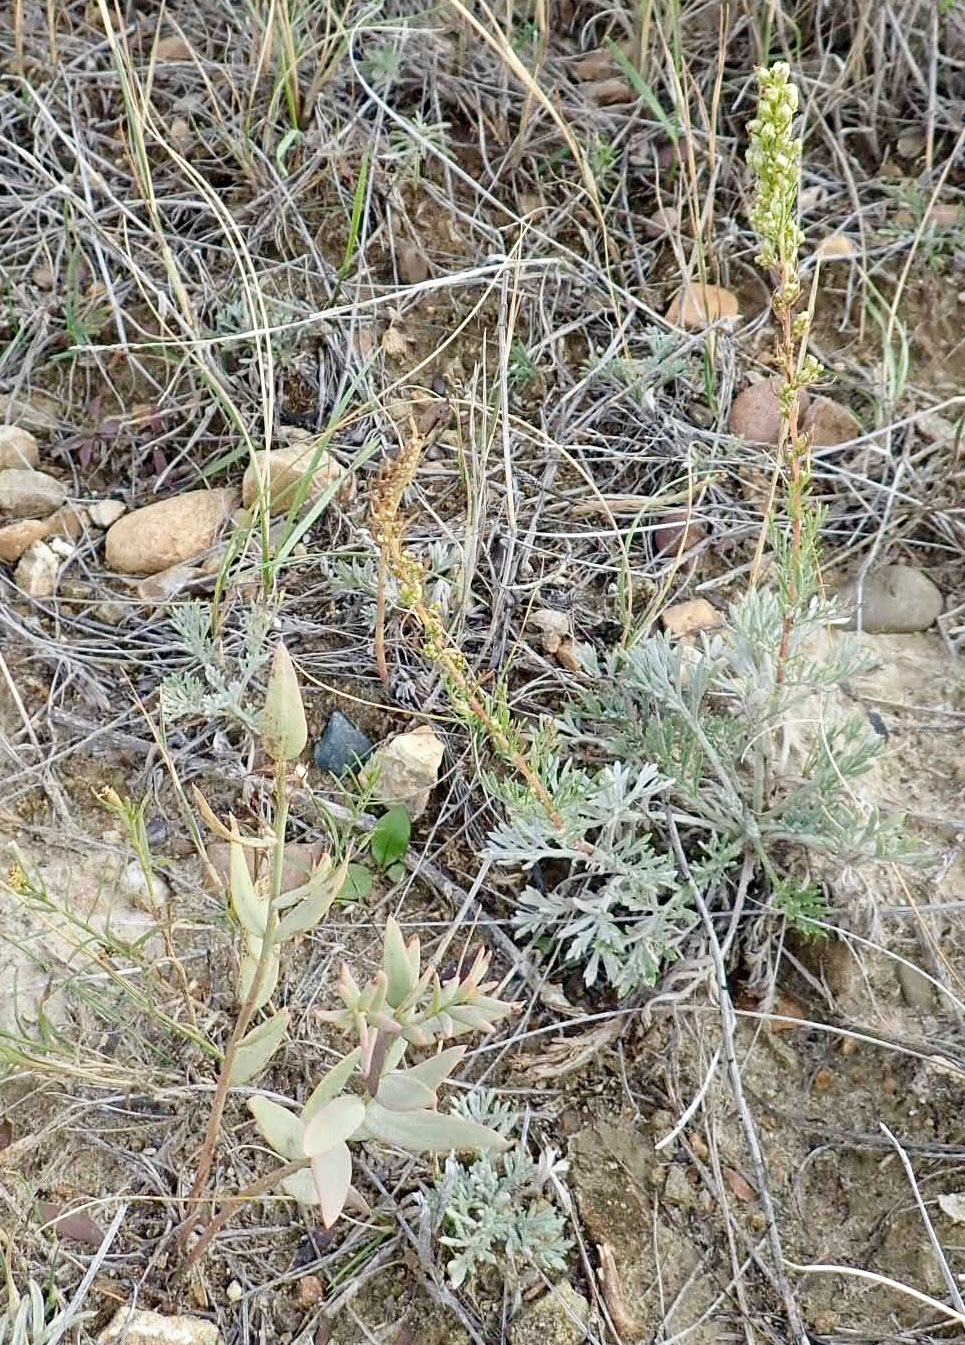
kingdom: Plantae
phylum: Tracheophyta
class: Magnoliopsida
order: Asterales
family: Asteraceae
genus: Artemisia
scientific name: Artemisia campestris
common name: Field wormwood
